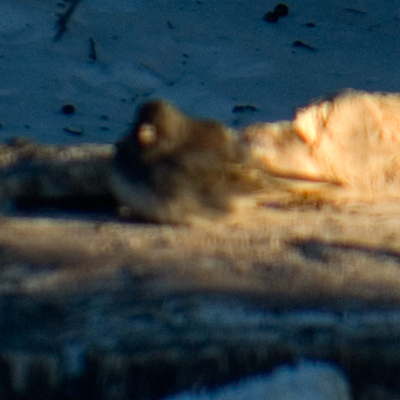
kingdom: Animalia
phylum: Chordata
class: Aves
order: Passeriformes
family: Passerellidae
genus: Junco
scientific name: Junco hyemalis
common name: Dark-eyed junco
